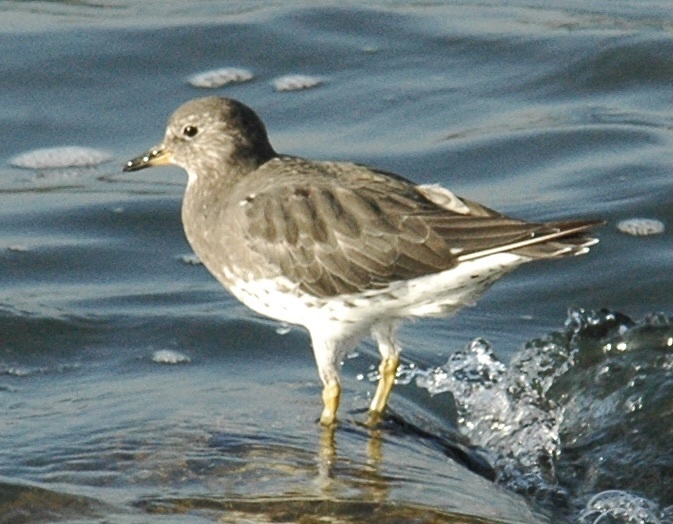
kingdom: Animalia
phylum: Chordata
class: Aves
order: Charadriiformes
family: Scolopacidae
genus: Calidris
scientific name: Calidris virgata
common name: Surfbird
